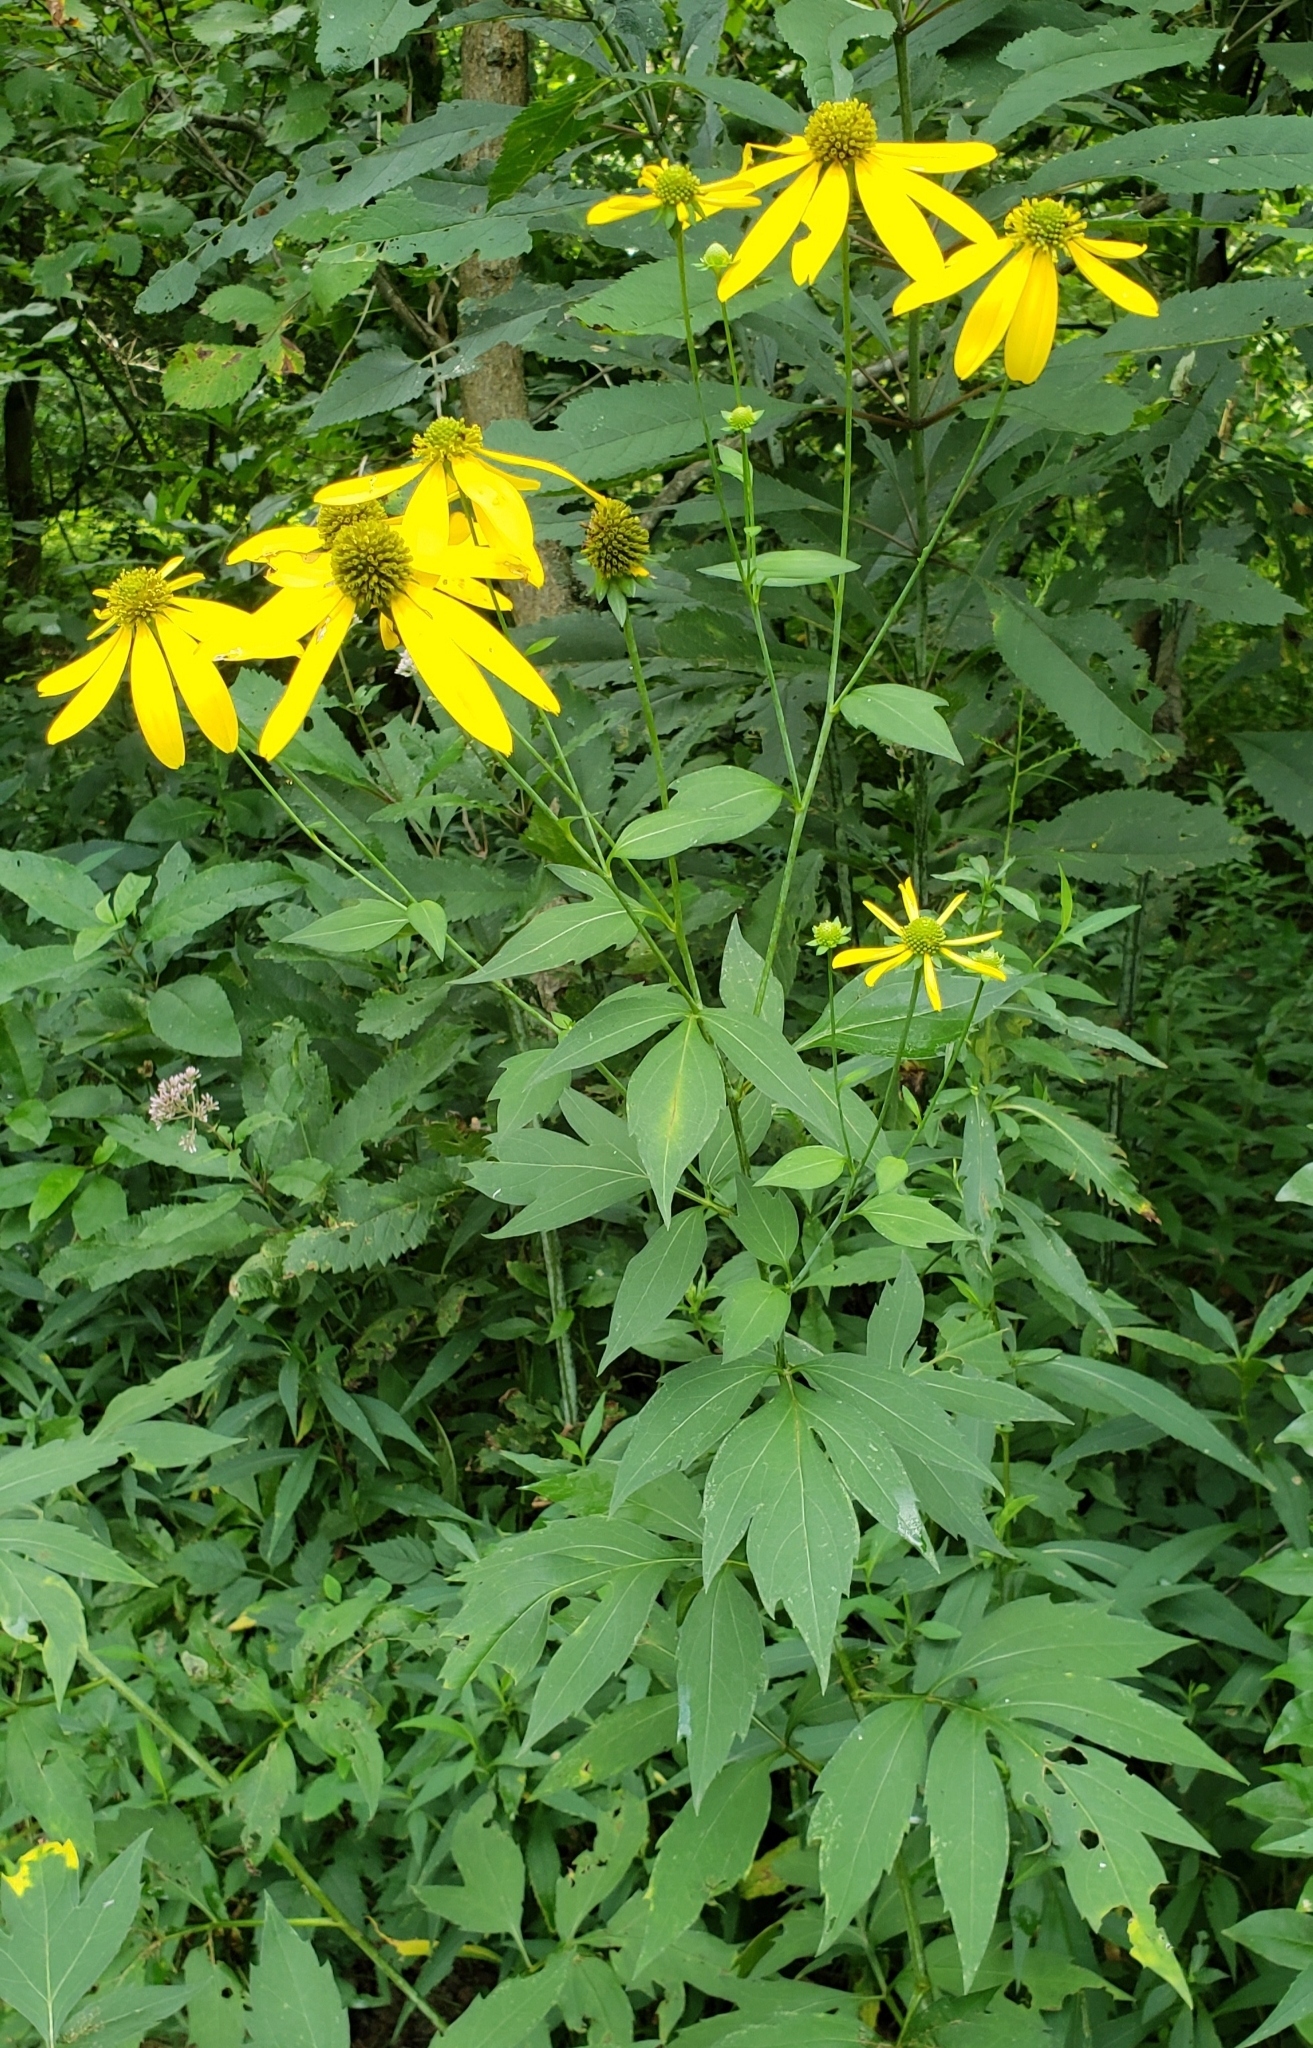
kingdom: Plantae
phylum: Tracheophyta
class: Magnoliopsida
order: Asterales
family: Asteraceae
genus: Rudbeckia
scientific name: Rudbeckia laciniata
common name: Coneflower
